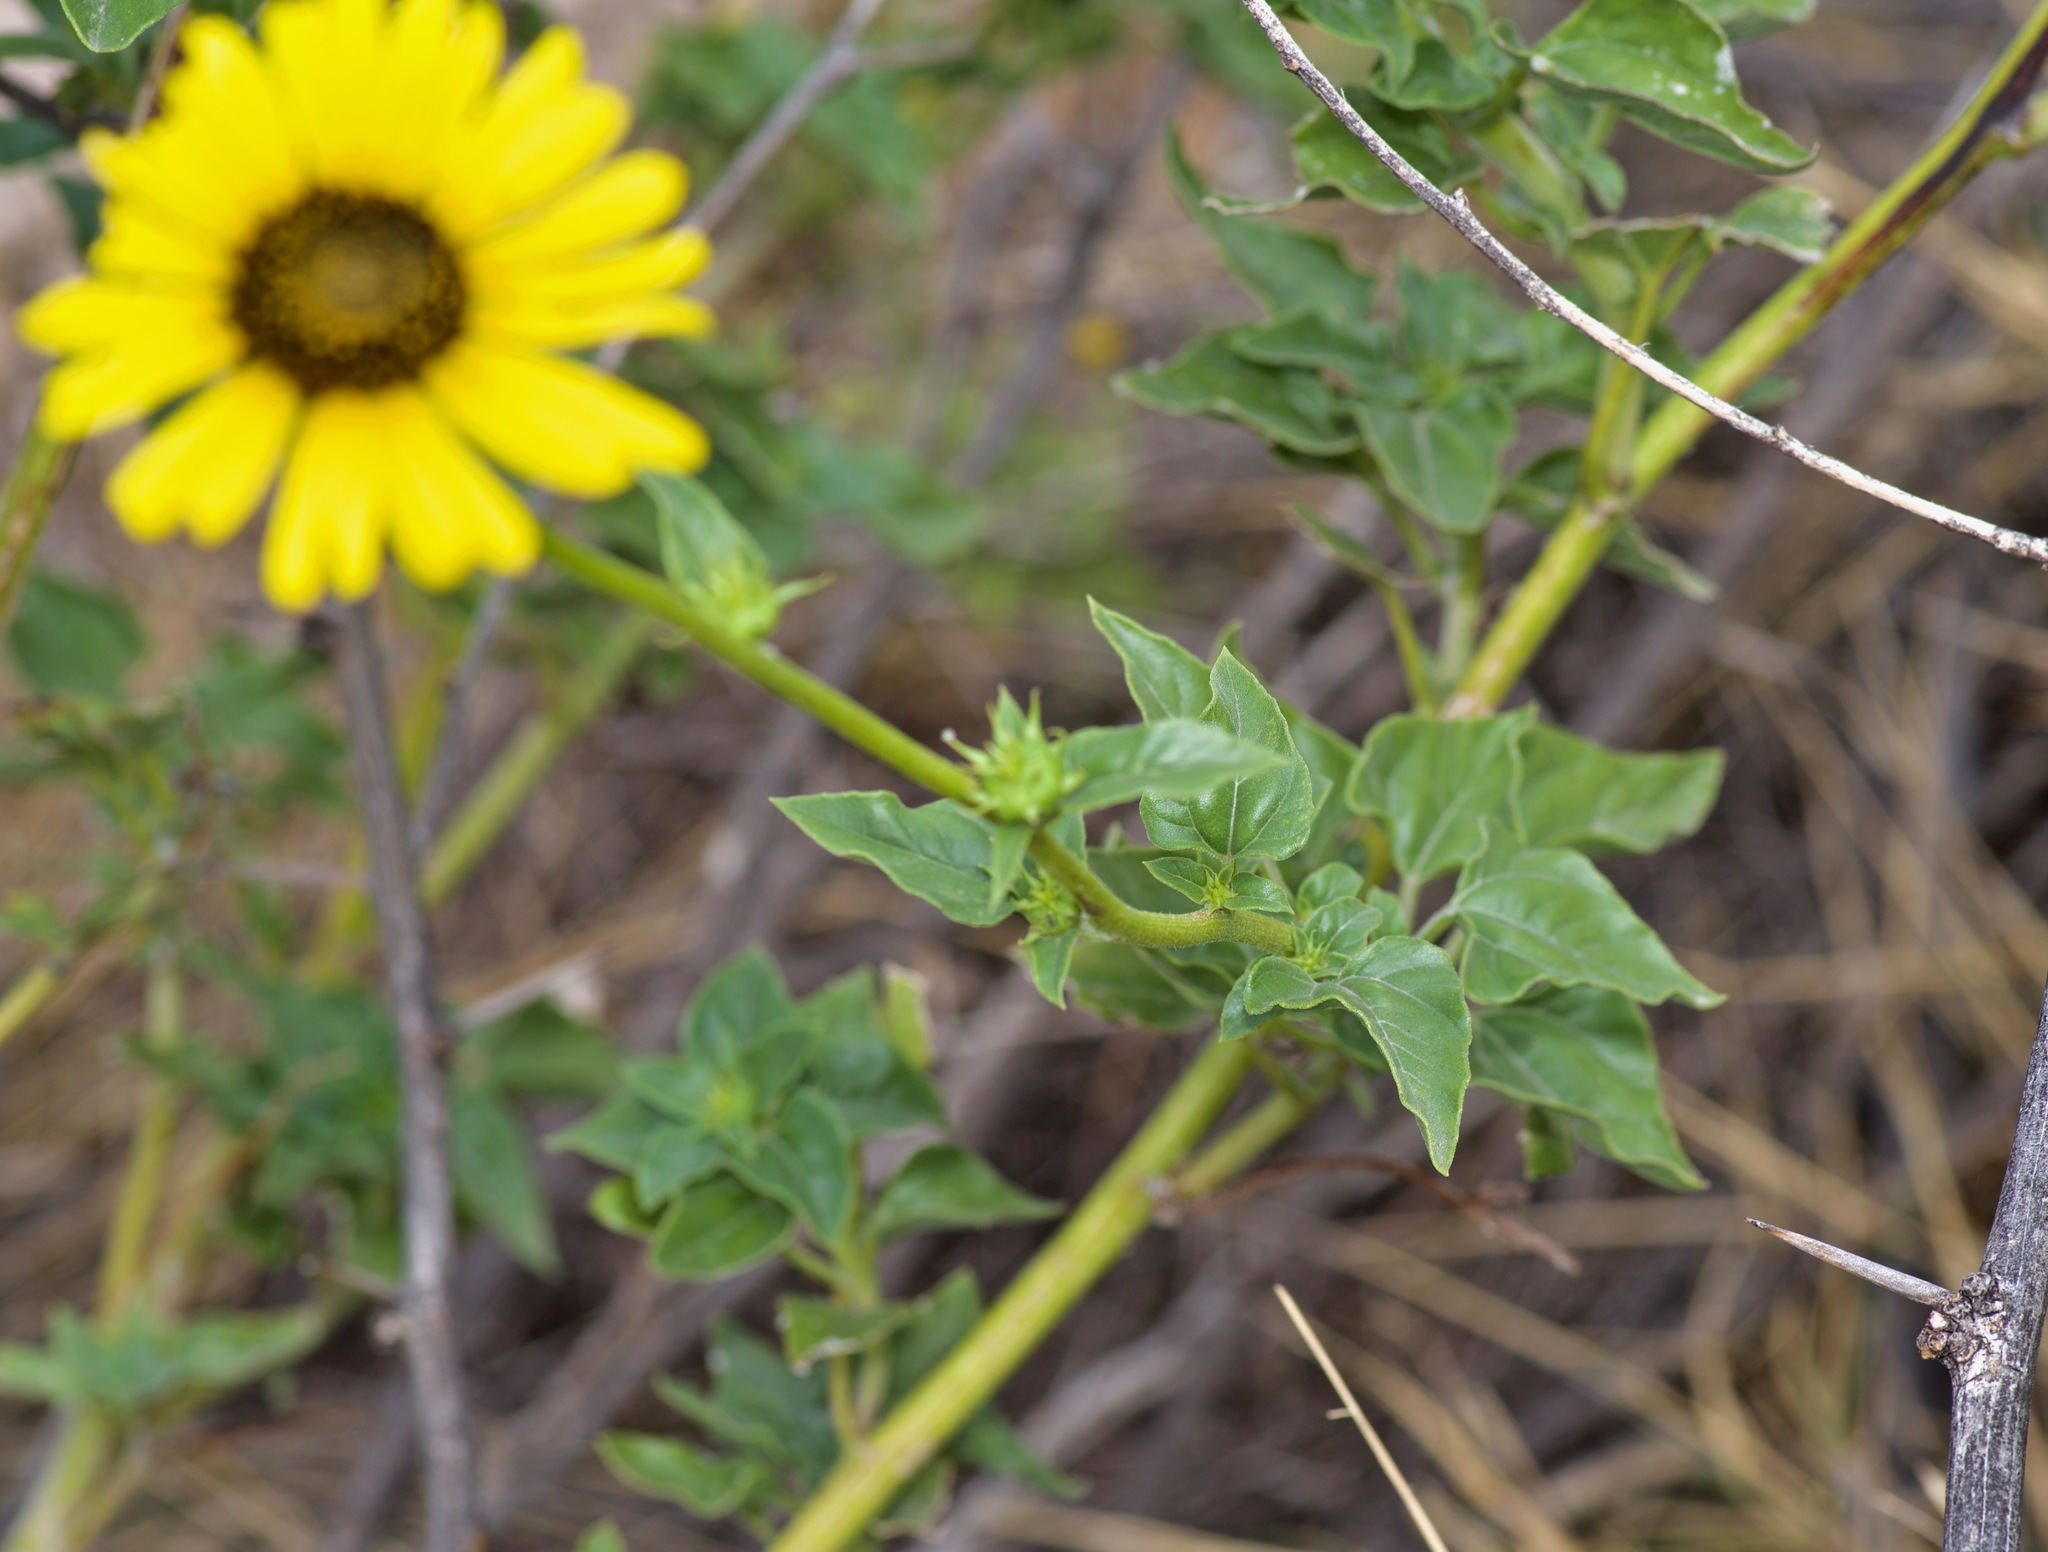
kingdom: Plantae
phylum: Tracheophyta
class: Magnoliopsida
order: Asterales
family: Asteraceae
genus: Helianthus
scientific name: Helianthus petiolaris
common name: Lesser sunflower
